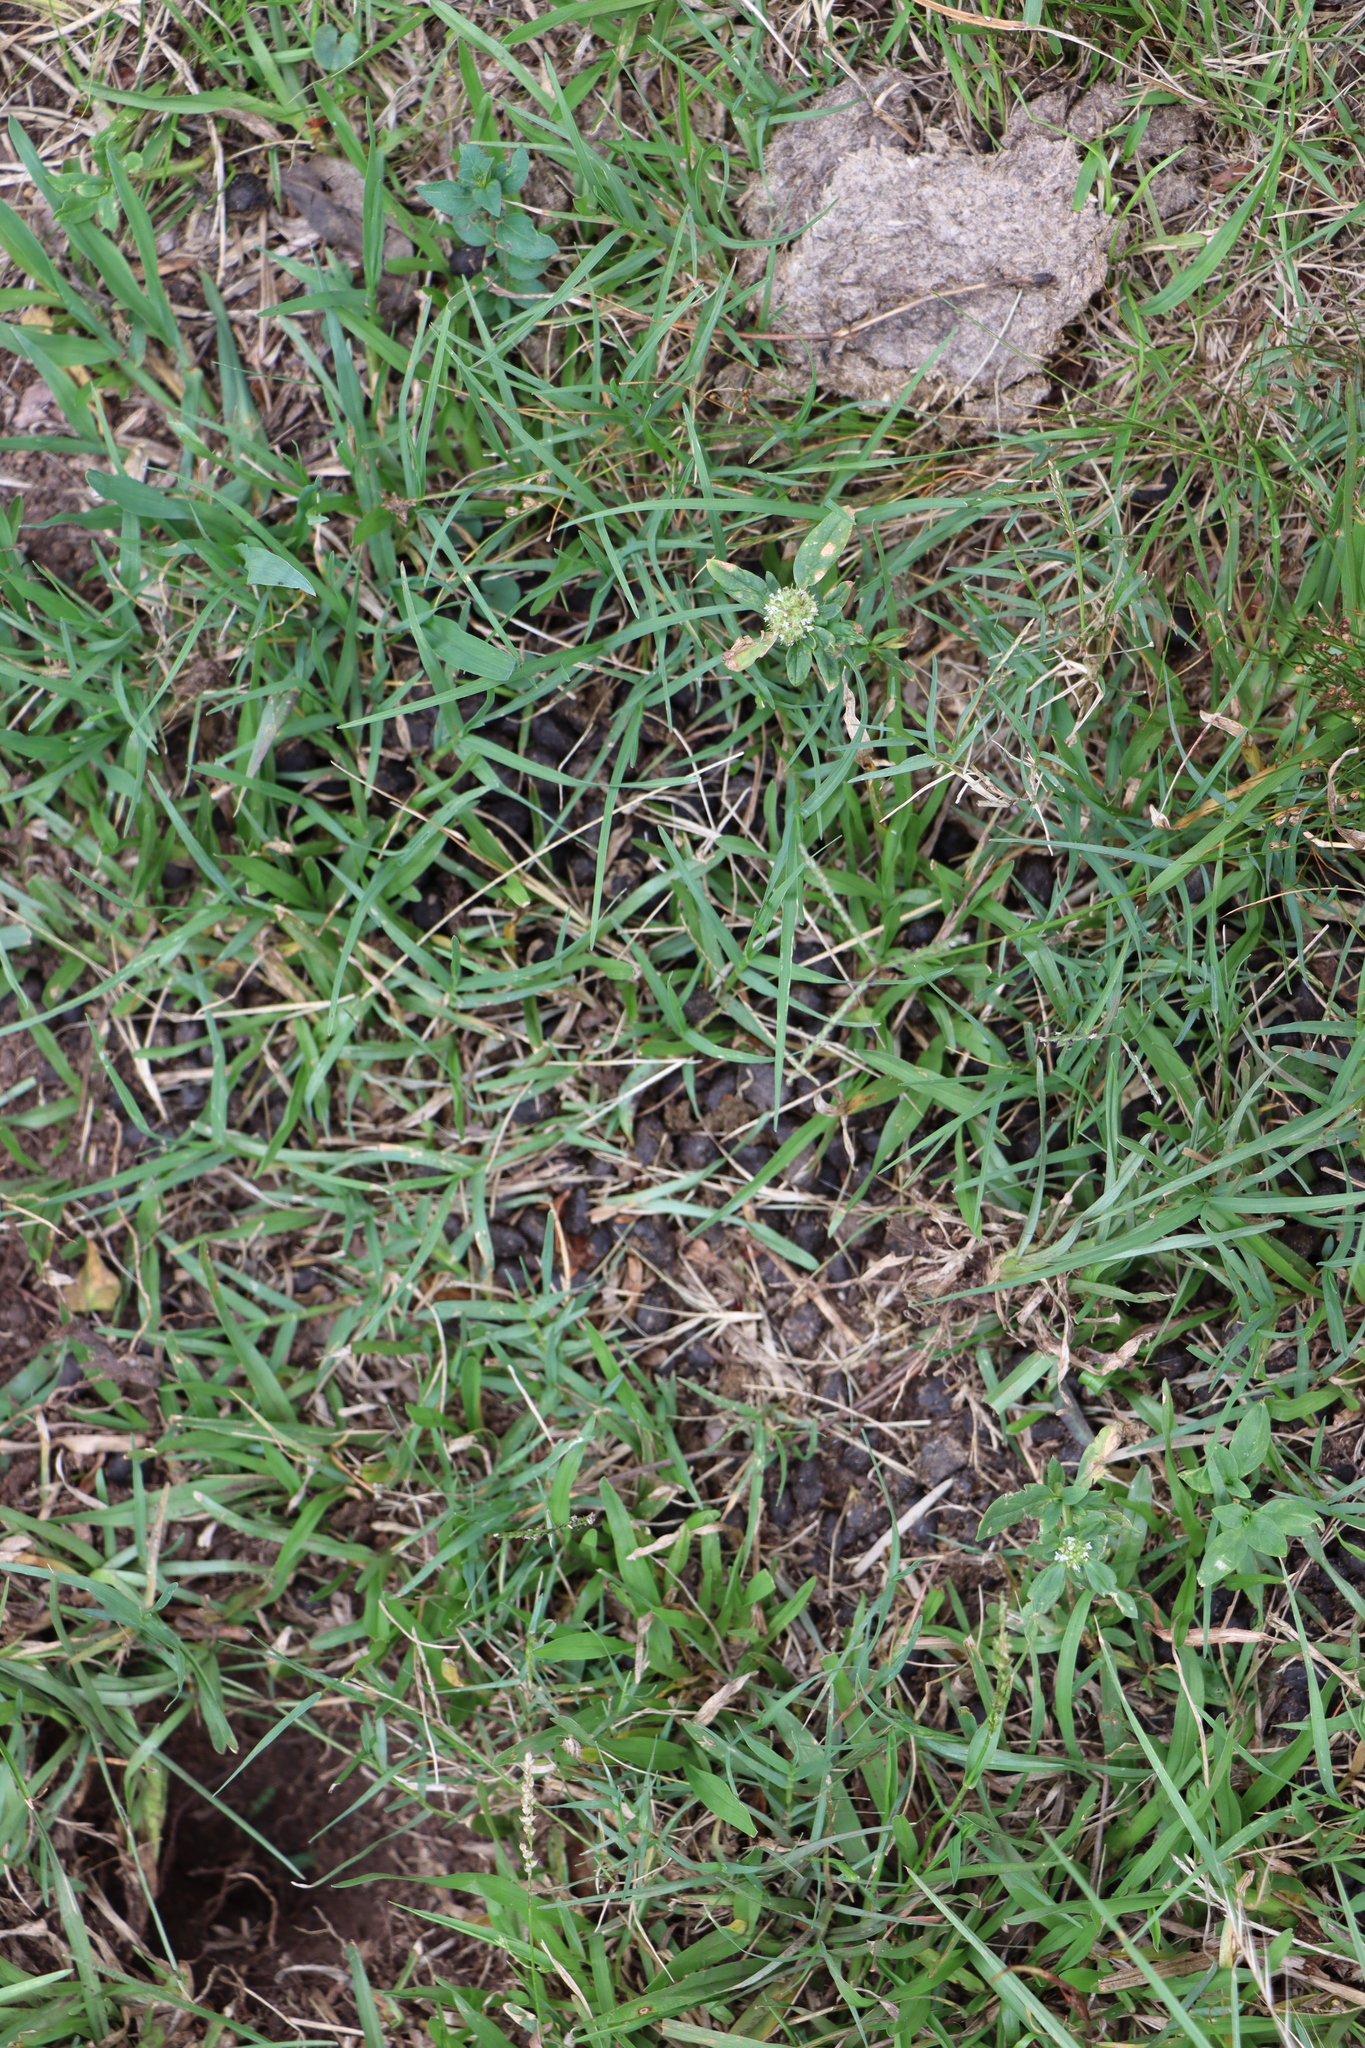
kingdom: Animalia
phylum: Chordata
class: Mammalia
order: Artiodactyla
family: Cervidae
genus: Mazama
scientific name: Mazama gouazoubira
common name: Gray brocket
